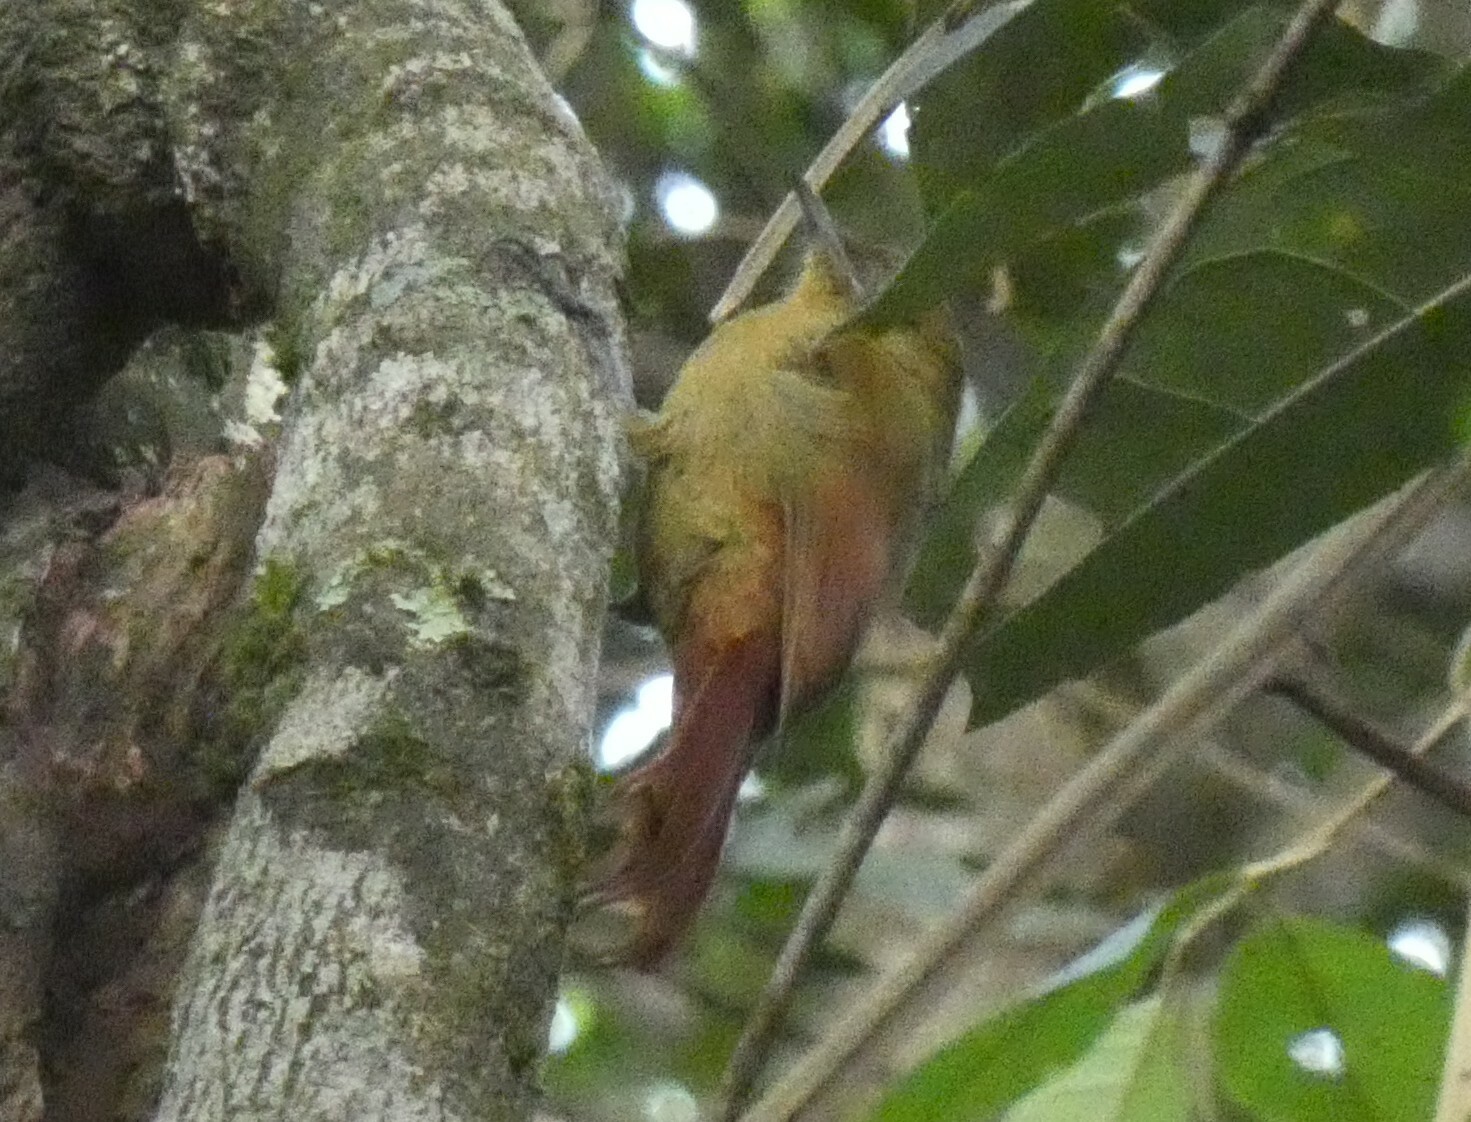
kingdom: Animalia
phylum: Chordata
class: Aves
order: Passeriformes
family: Furnariidae
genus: Sittasomus
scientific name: Sittasomus griseicapillus
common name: Olivaceous woodcreeper
